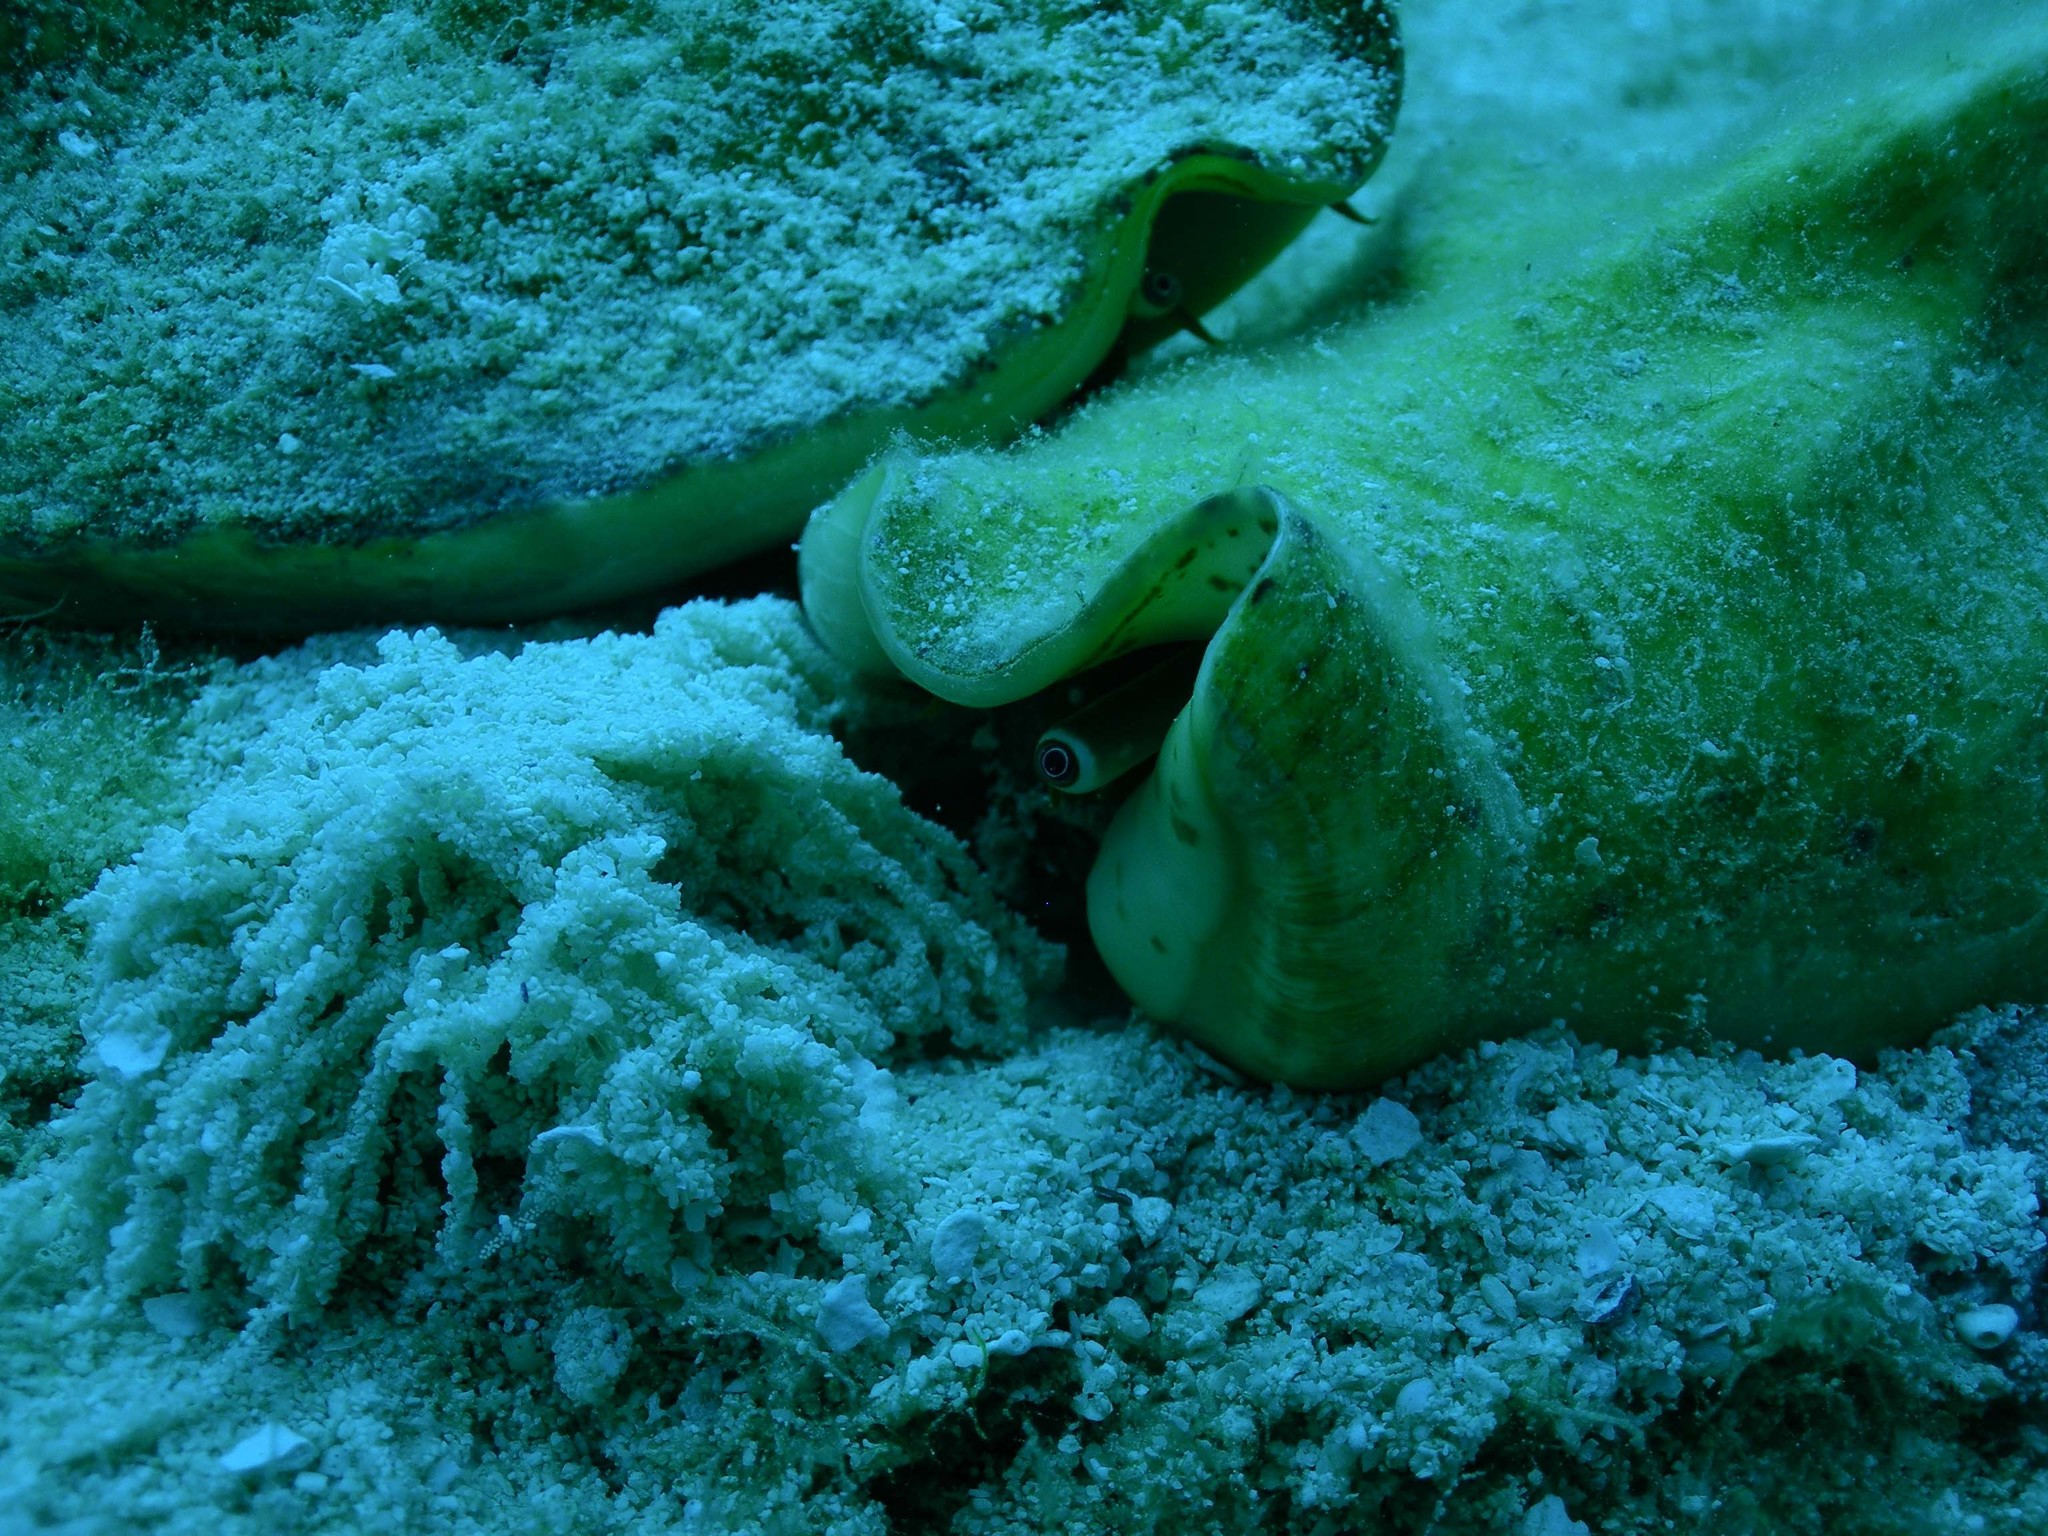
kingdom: Animalia
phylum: Mollusca
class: Gastropoda
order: Littorinimorpha
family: Strombidae
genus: Macrostrombus
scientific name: Macrostrombus costatus
